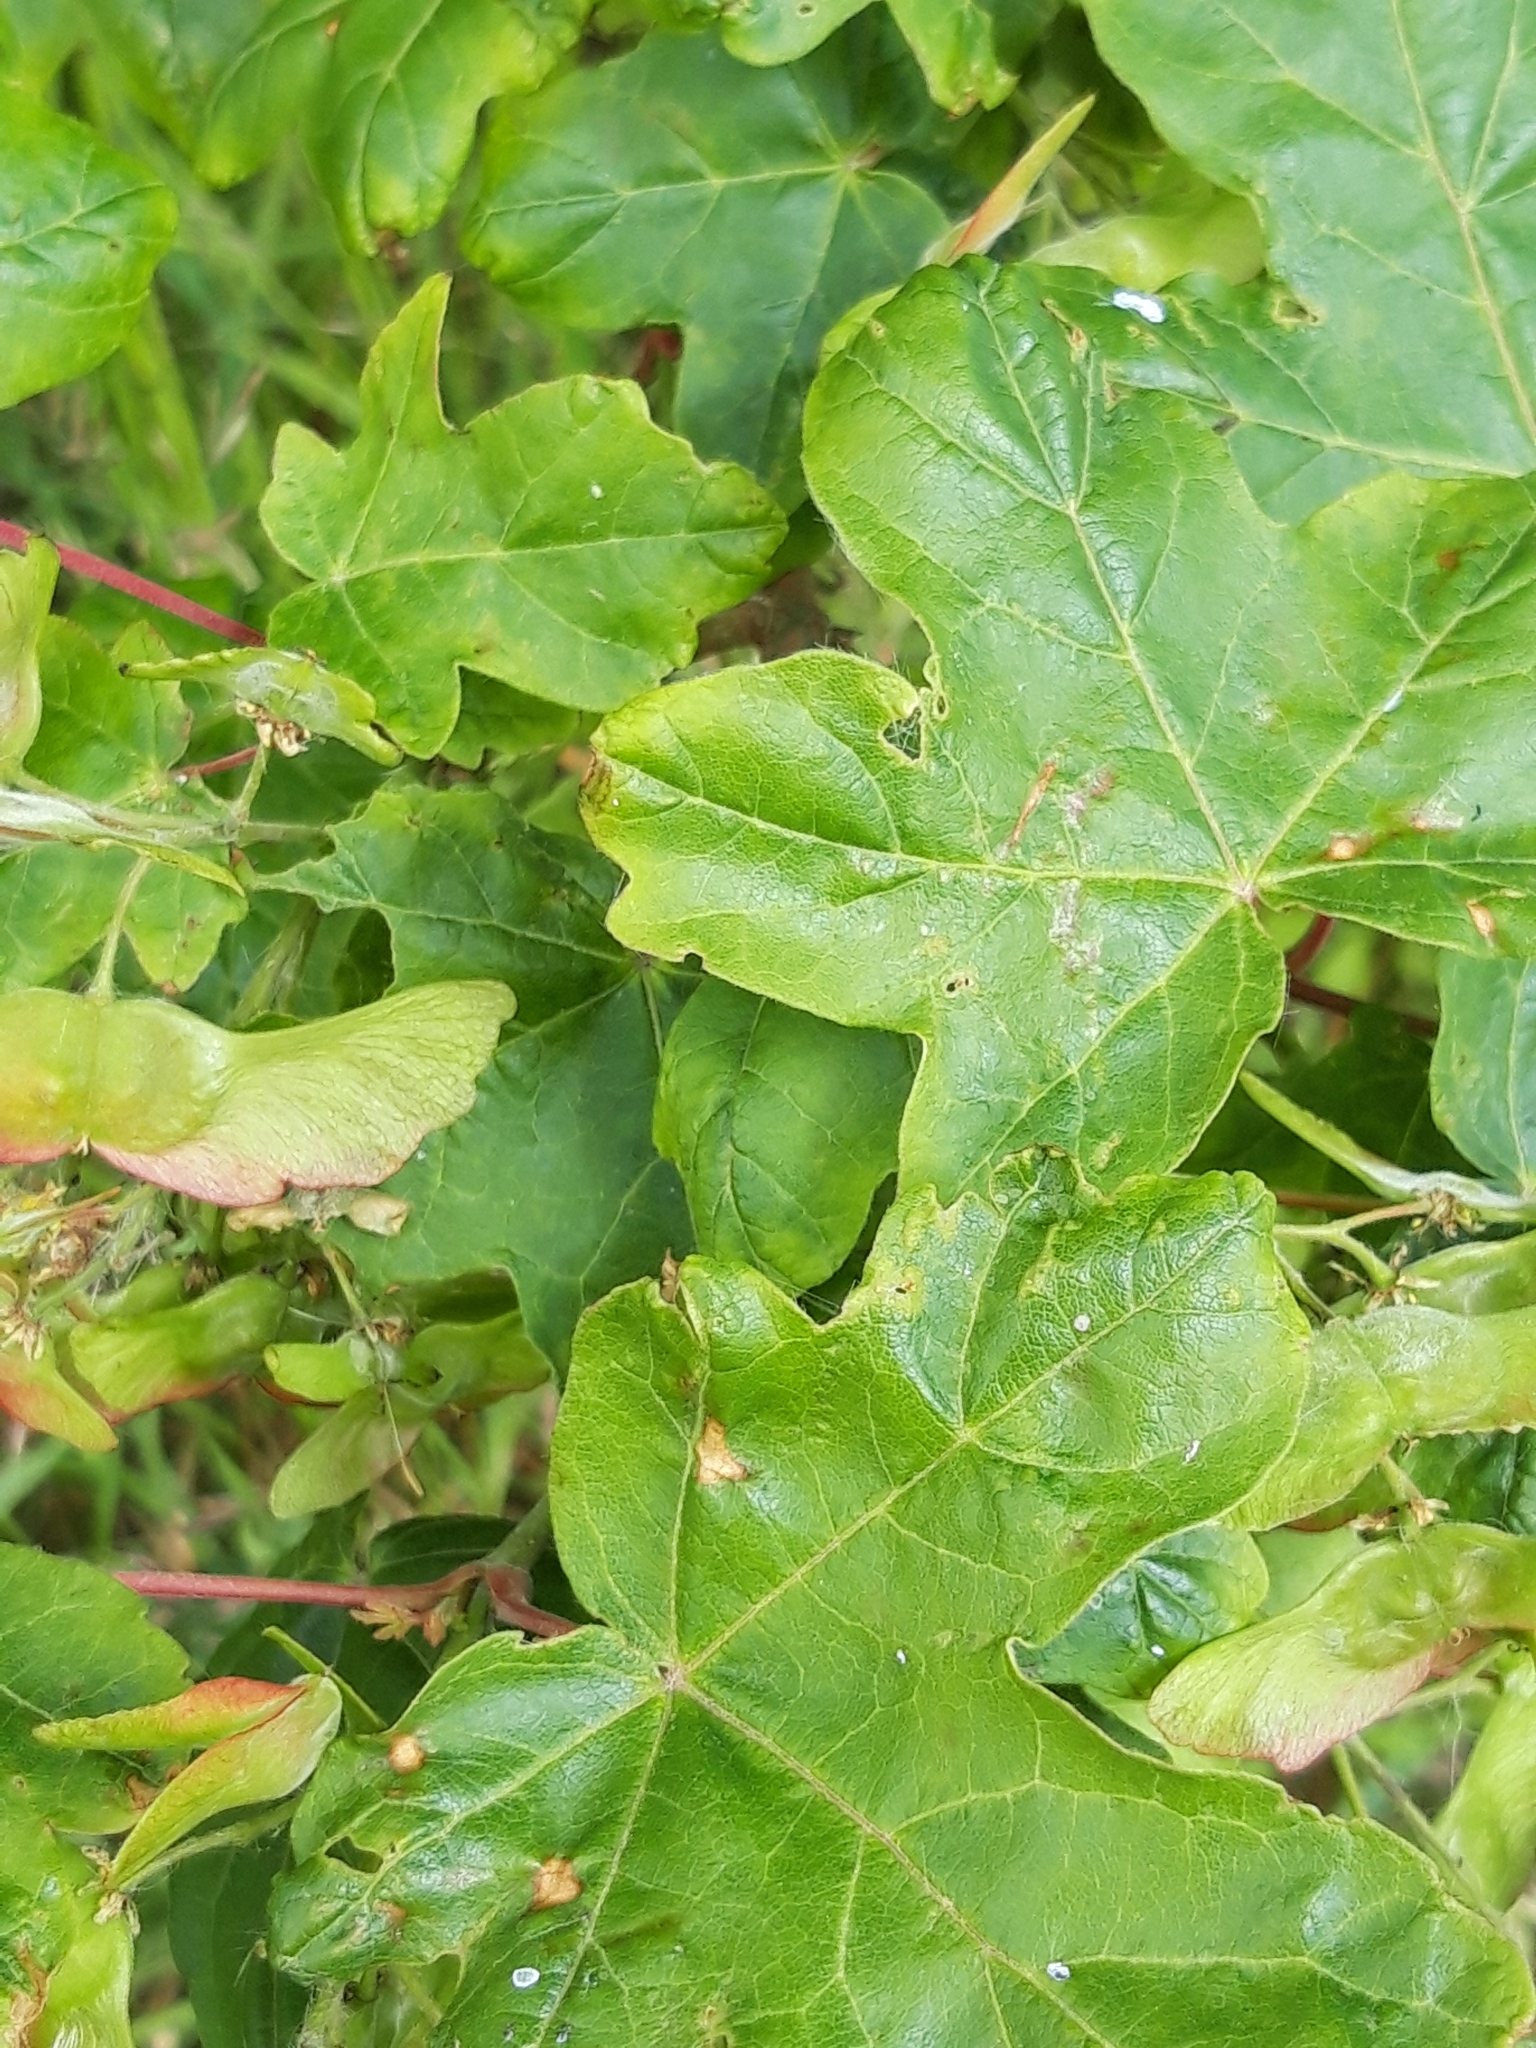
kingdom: Plantae
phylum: Tracheophyta
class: Magnoliopsida
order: Sapindales
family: Sapindaceae
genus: Acer
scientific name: Acer campestre
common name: Field maple
